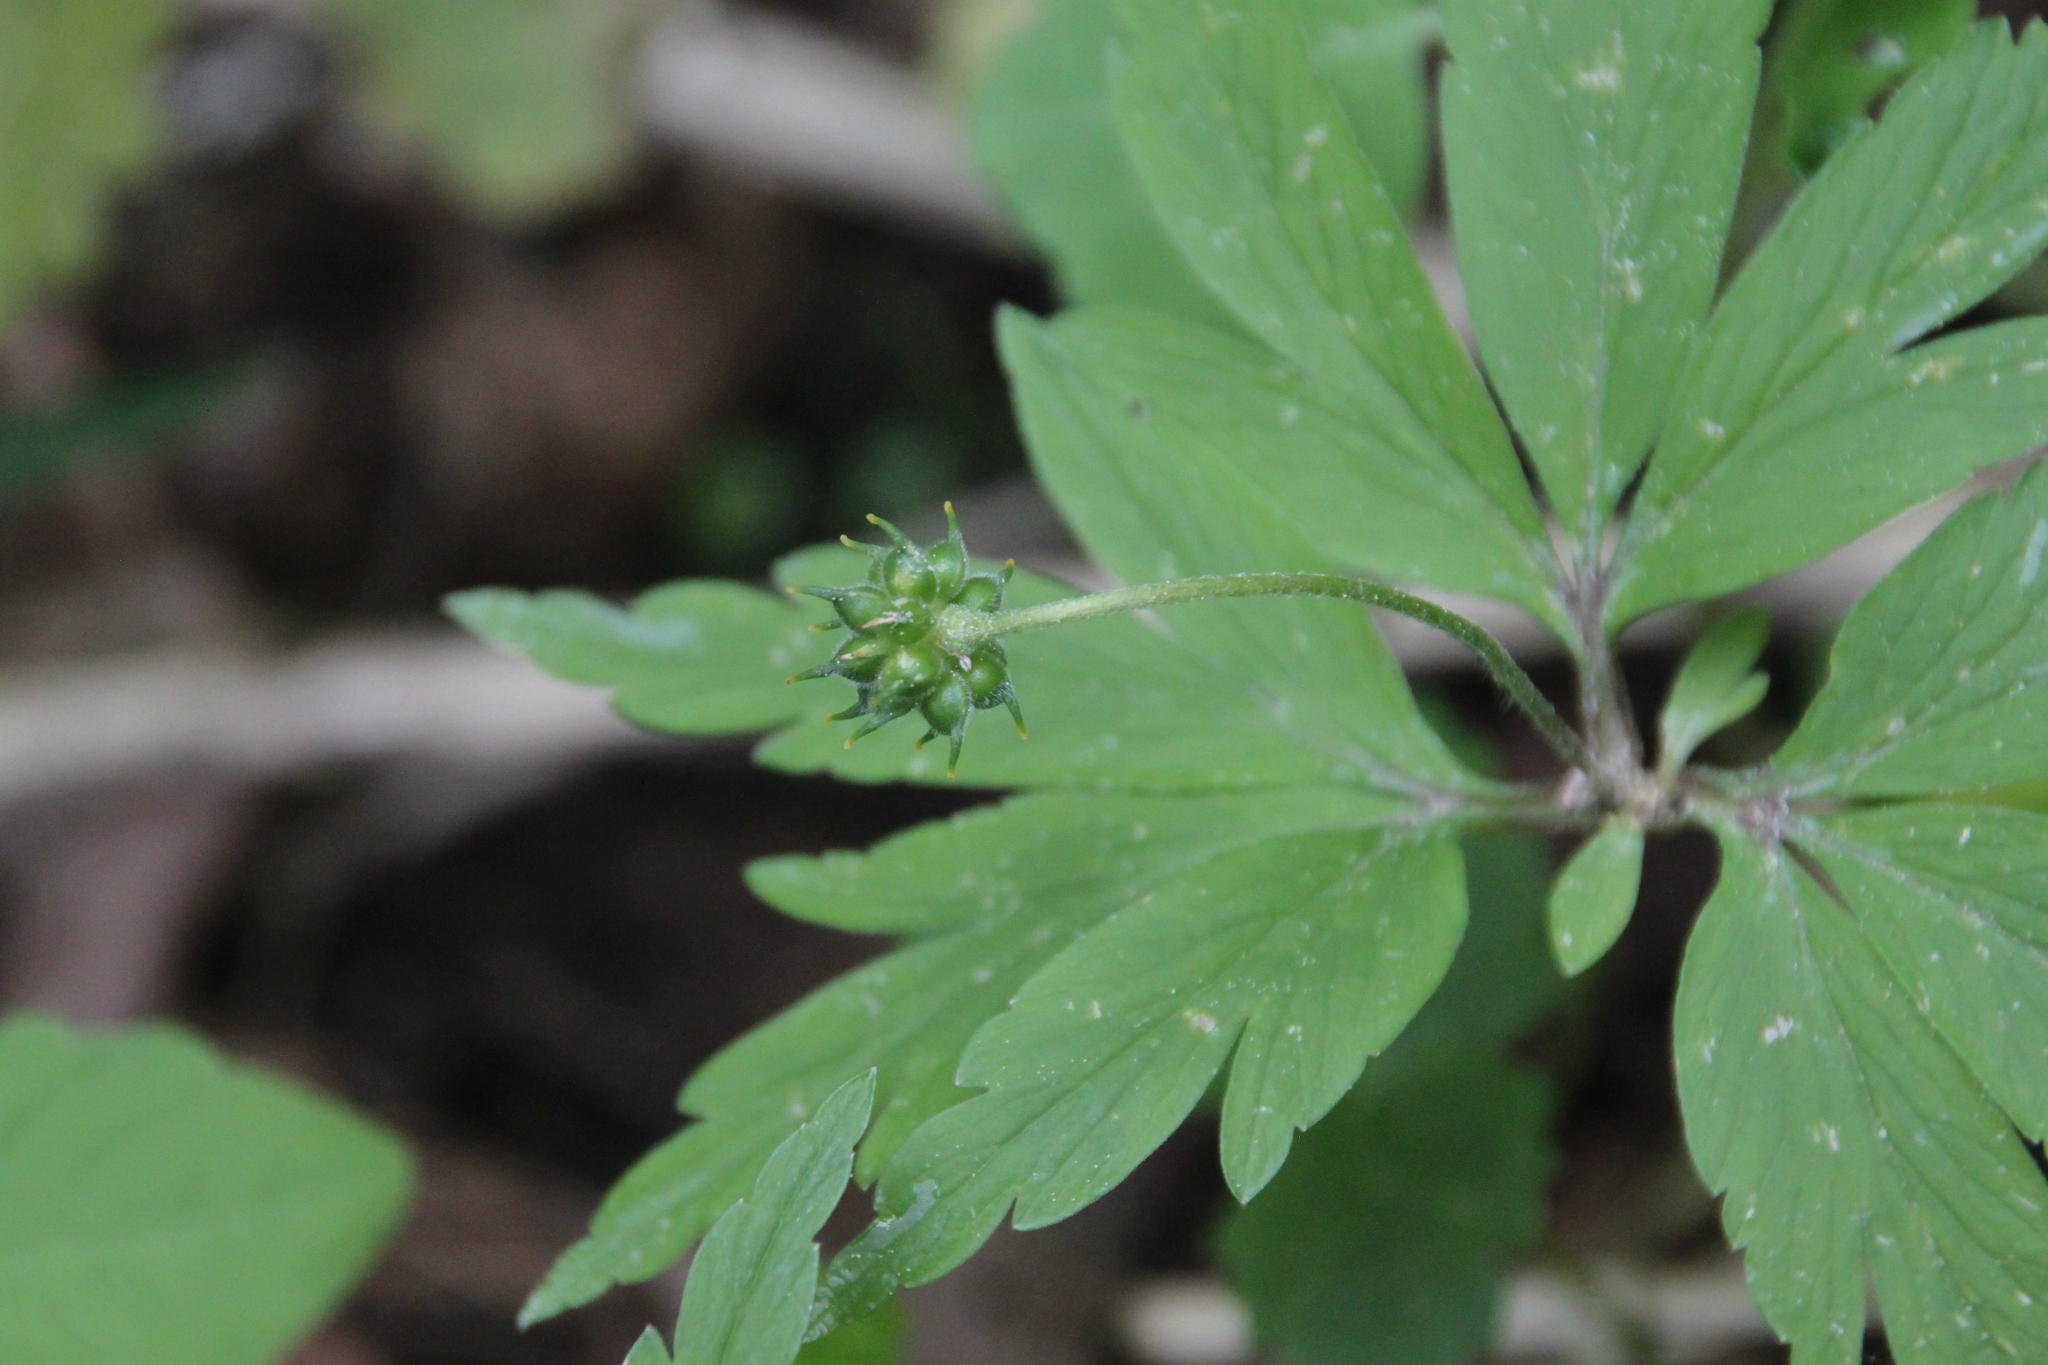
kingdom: Plantae
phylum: Tracheophyta
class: Magnoliopsida
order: Ranunculales
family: Ranunculaceae
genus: Anemone
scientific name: Anemone ranunculoides
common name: Yellow anemone
